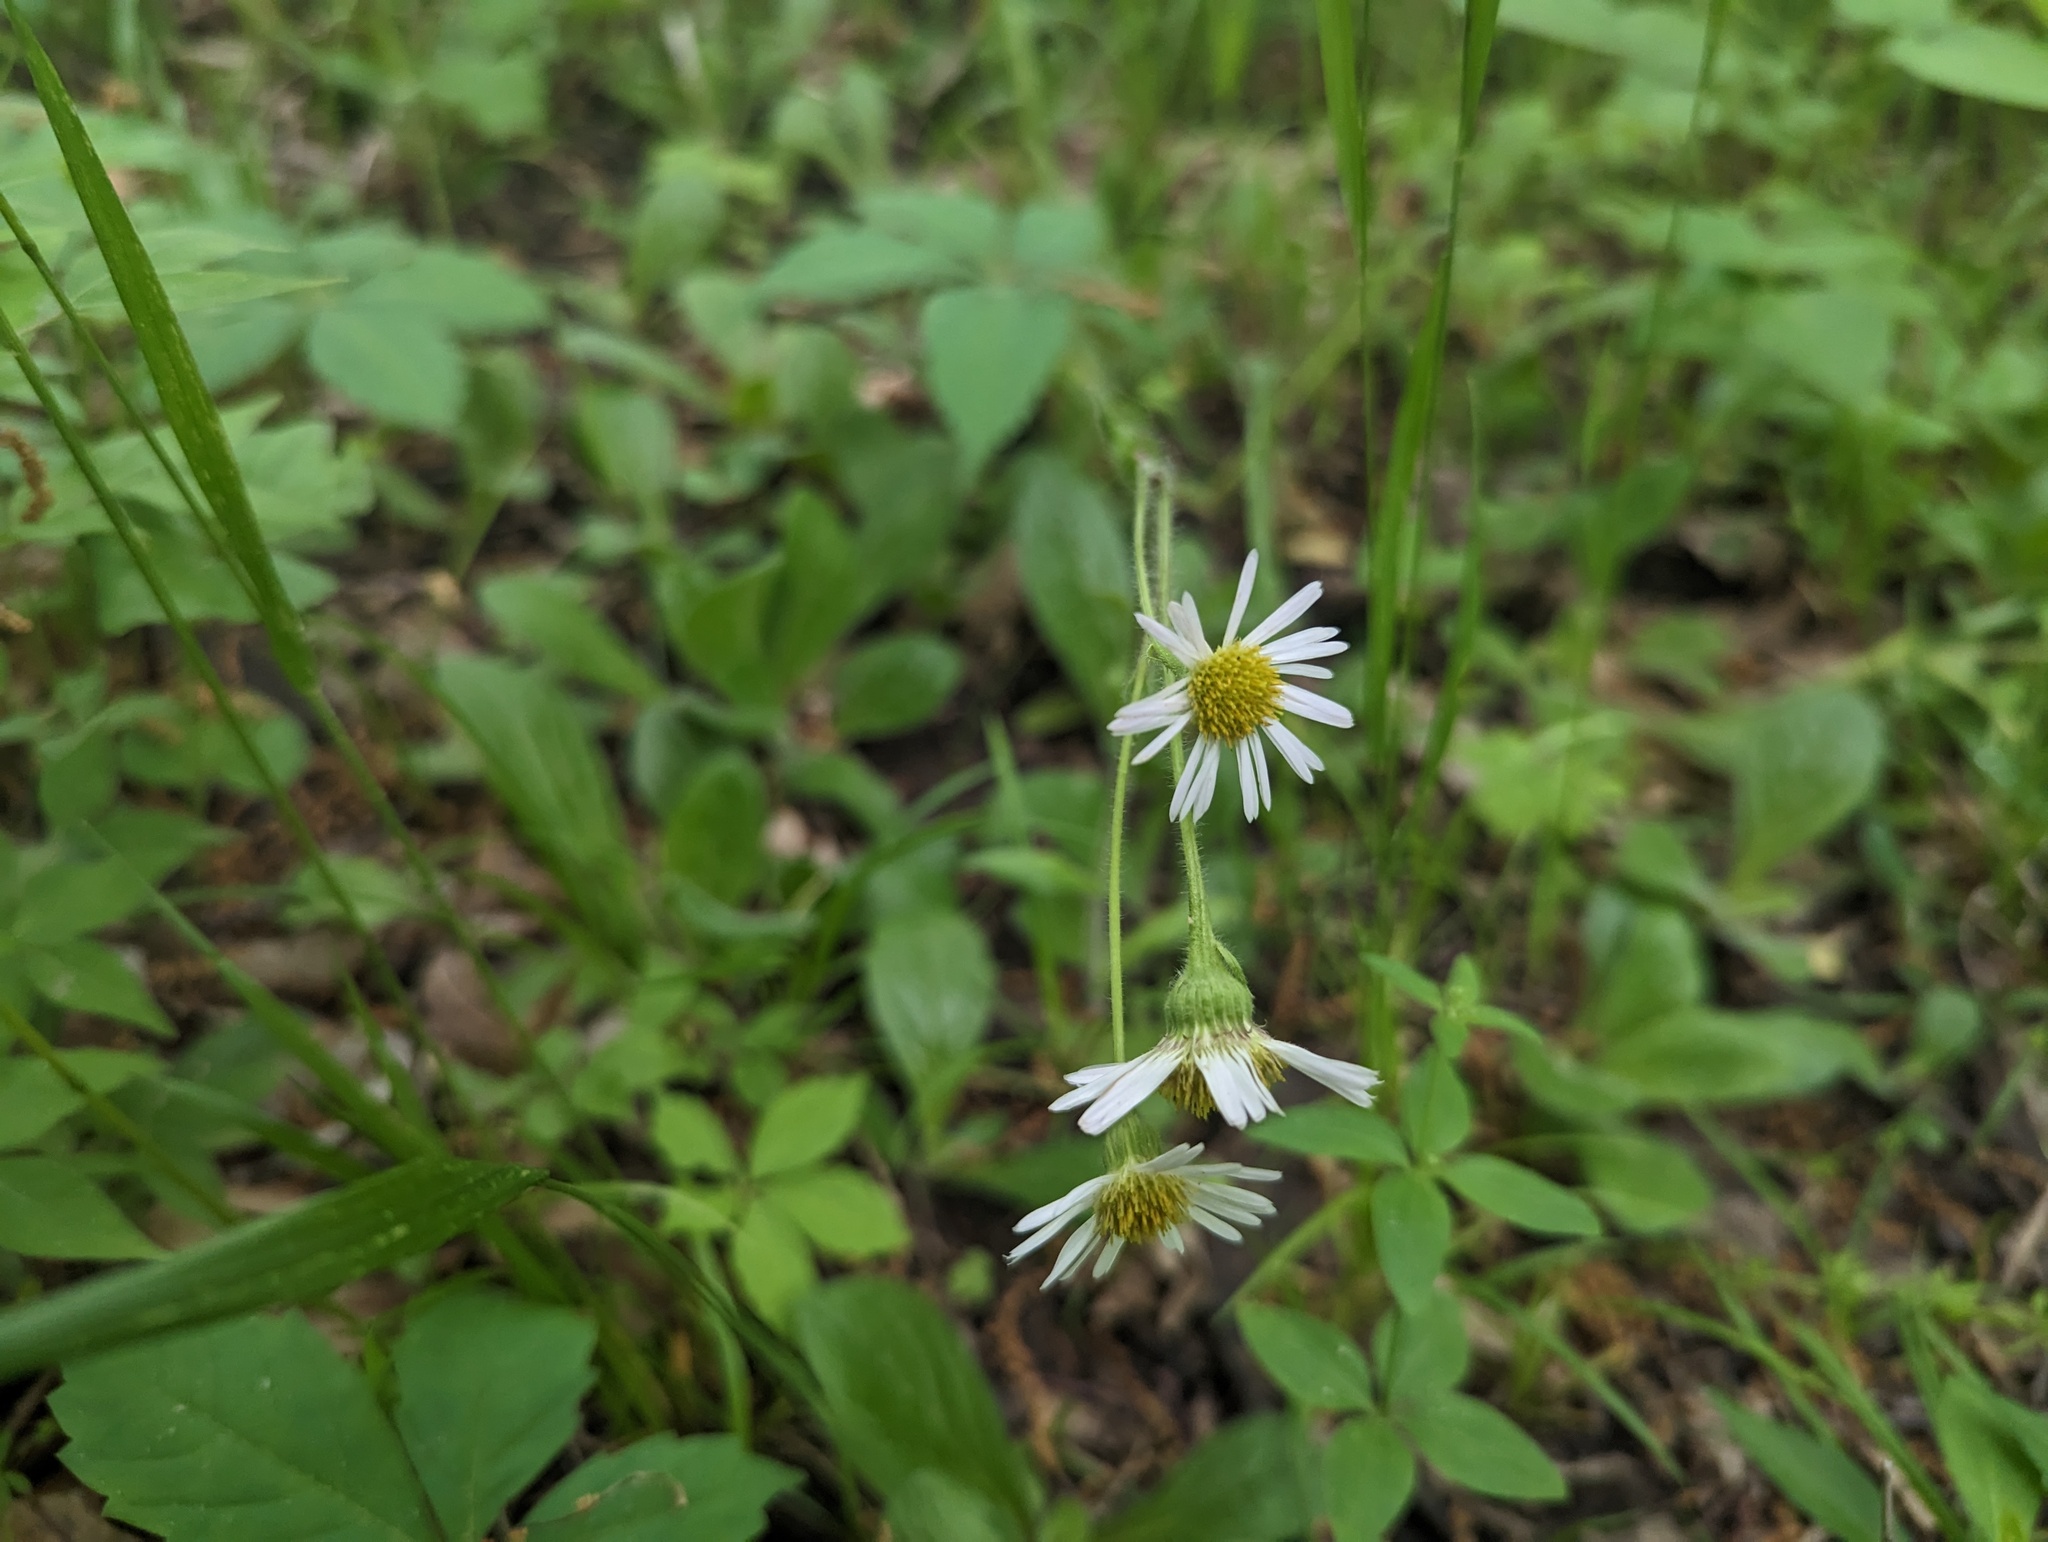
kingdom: Plantae
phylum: Tracheophyta
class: Magnoliopsida
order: Asterales
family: Asteraceae
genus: Erigeron
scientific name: Erigeron pulchellus
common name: Hairy fleabane
